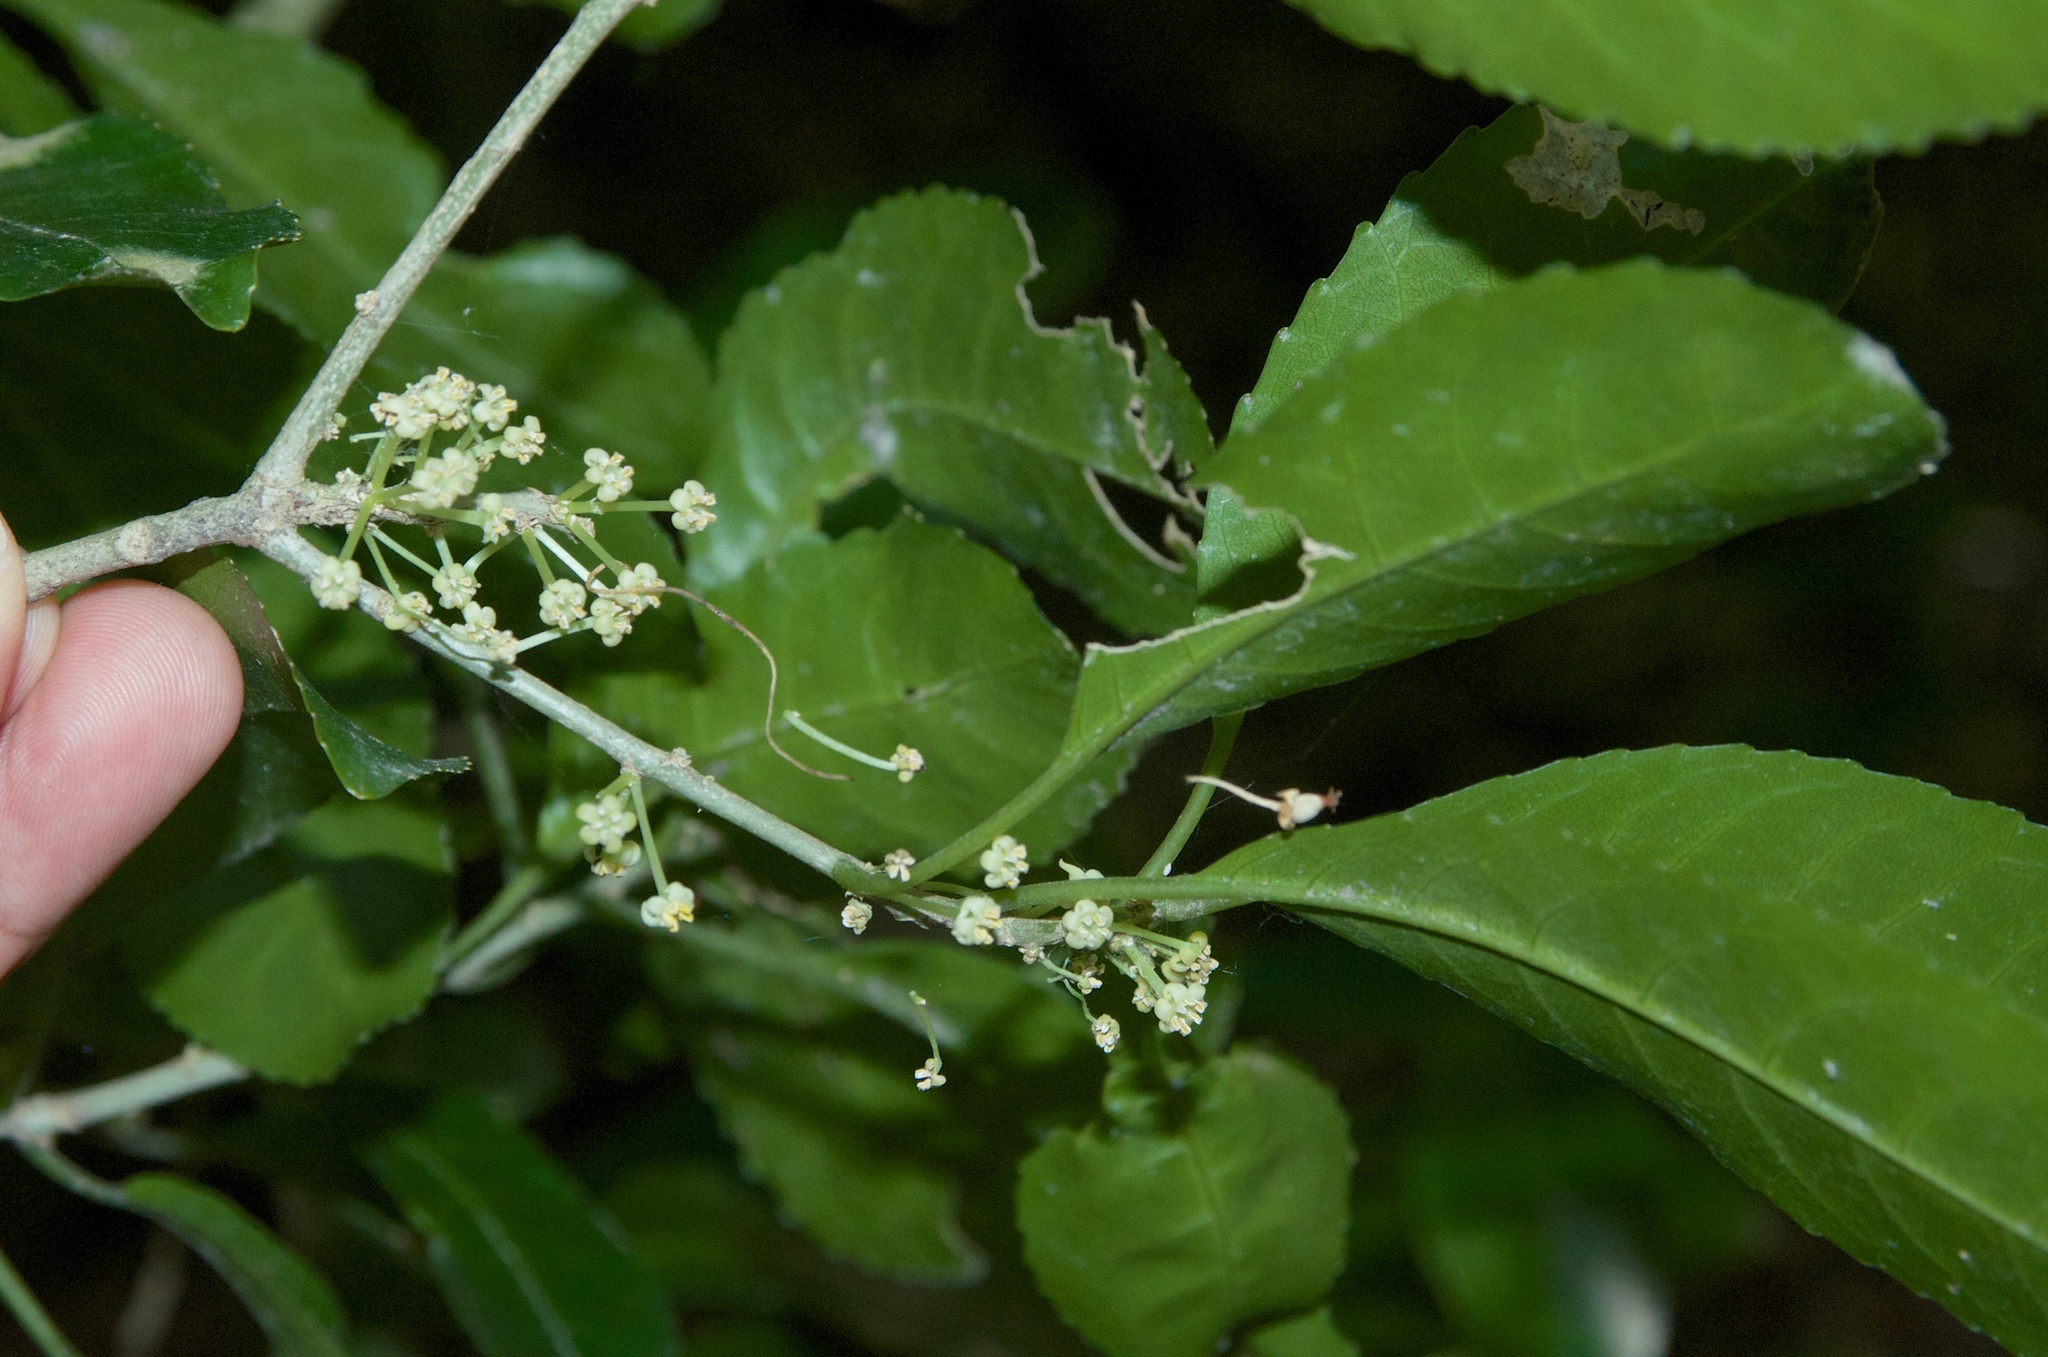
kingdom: Plantae
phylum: Tracheophyta
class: Magnoliopsida
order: Malpighiales
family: Violaceae
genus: Melicytus
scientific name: Melicytus ramiflorus
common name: Mahoe
